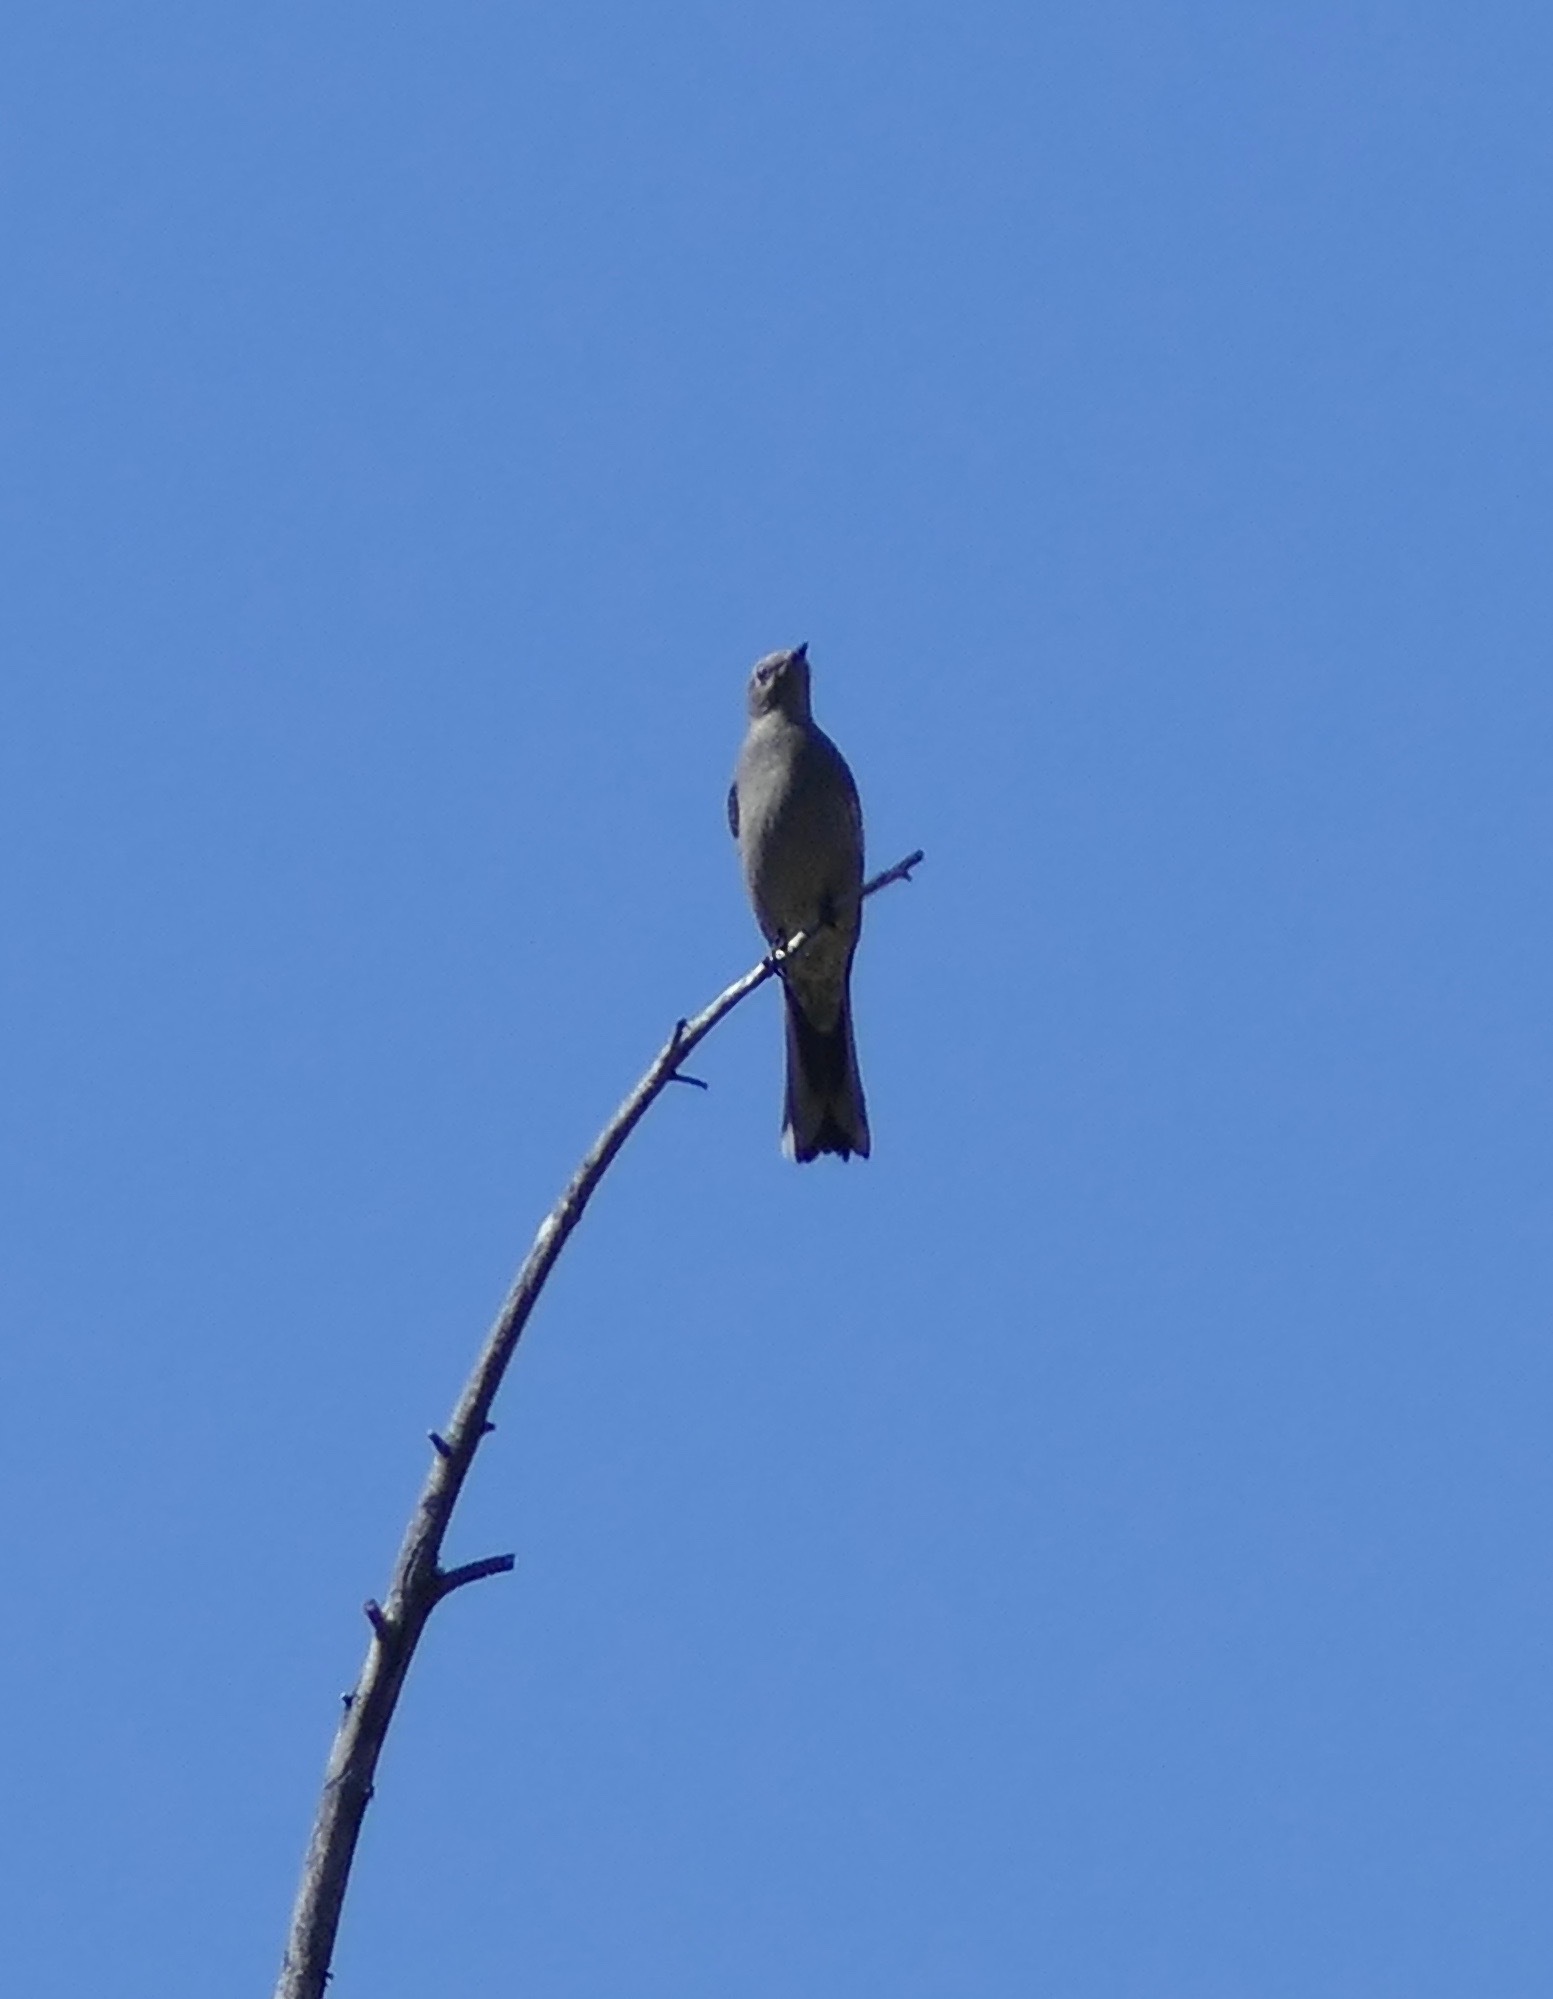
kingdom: Animalia
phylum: Chordata
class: Aves
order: Passeriformes
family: Turdidae
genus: Myadestes
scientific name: Myadestes townsendi
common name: Townsend's solitaire
